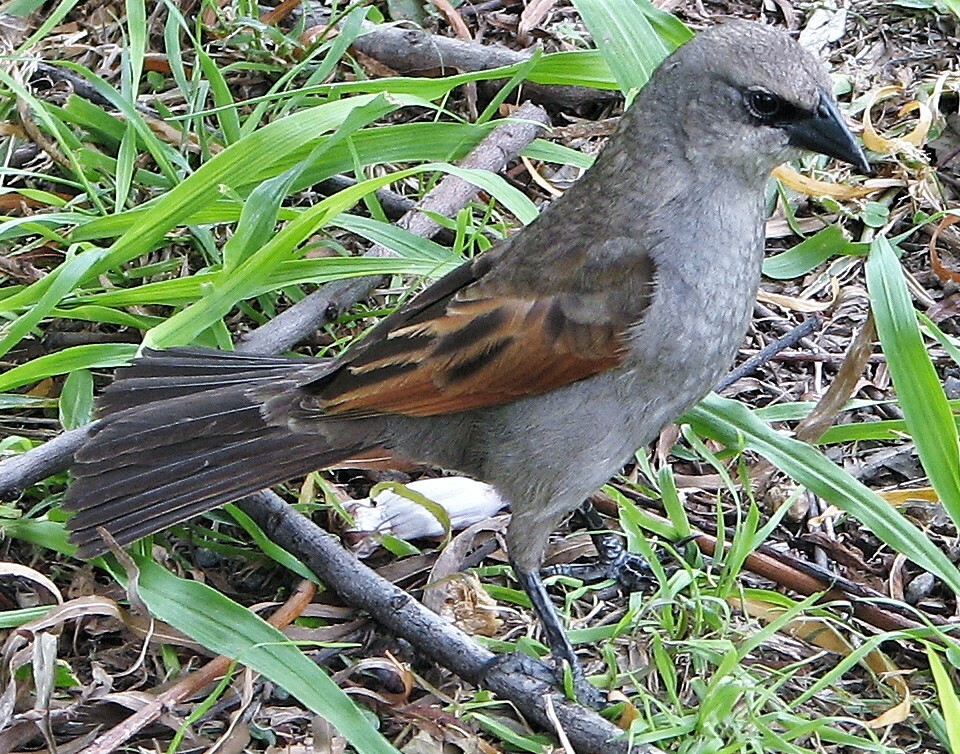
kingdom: Animalia
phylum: Chordata
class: Aves
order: Passeriformes
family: Icteridae
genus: Agelaioides
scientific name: Agelaioides badius
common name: Baywing
